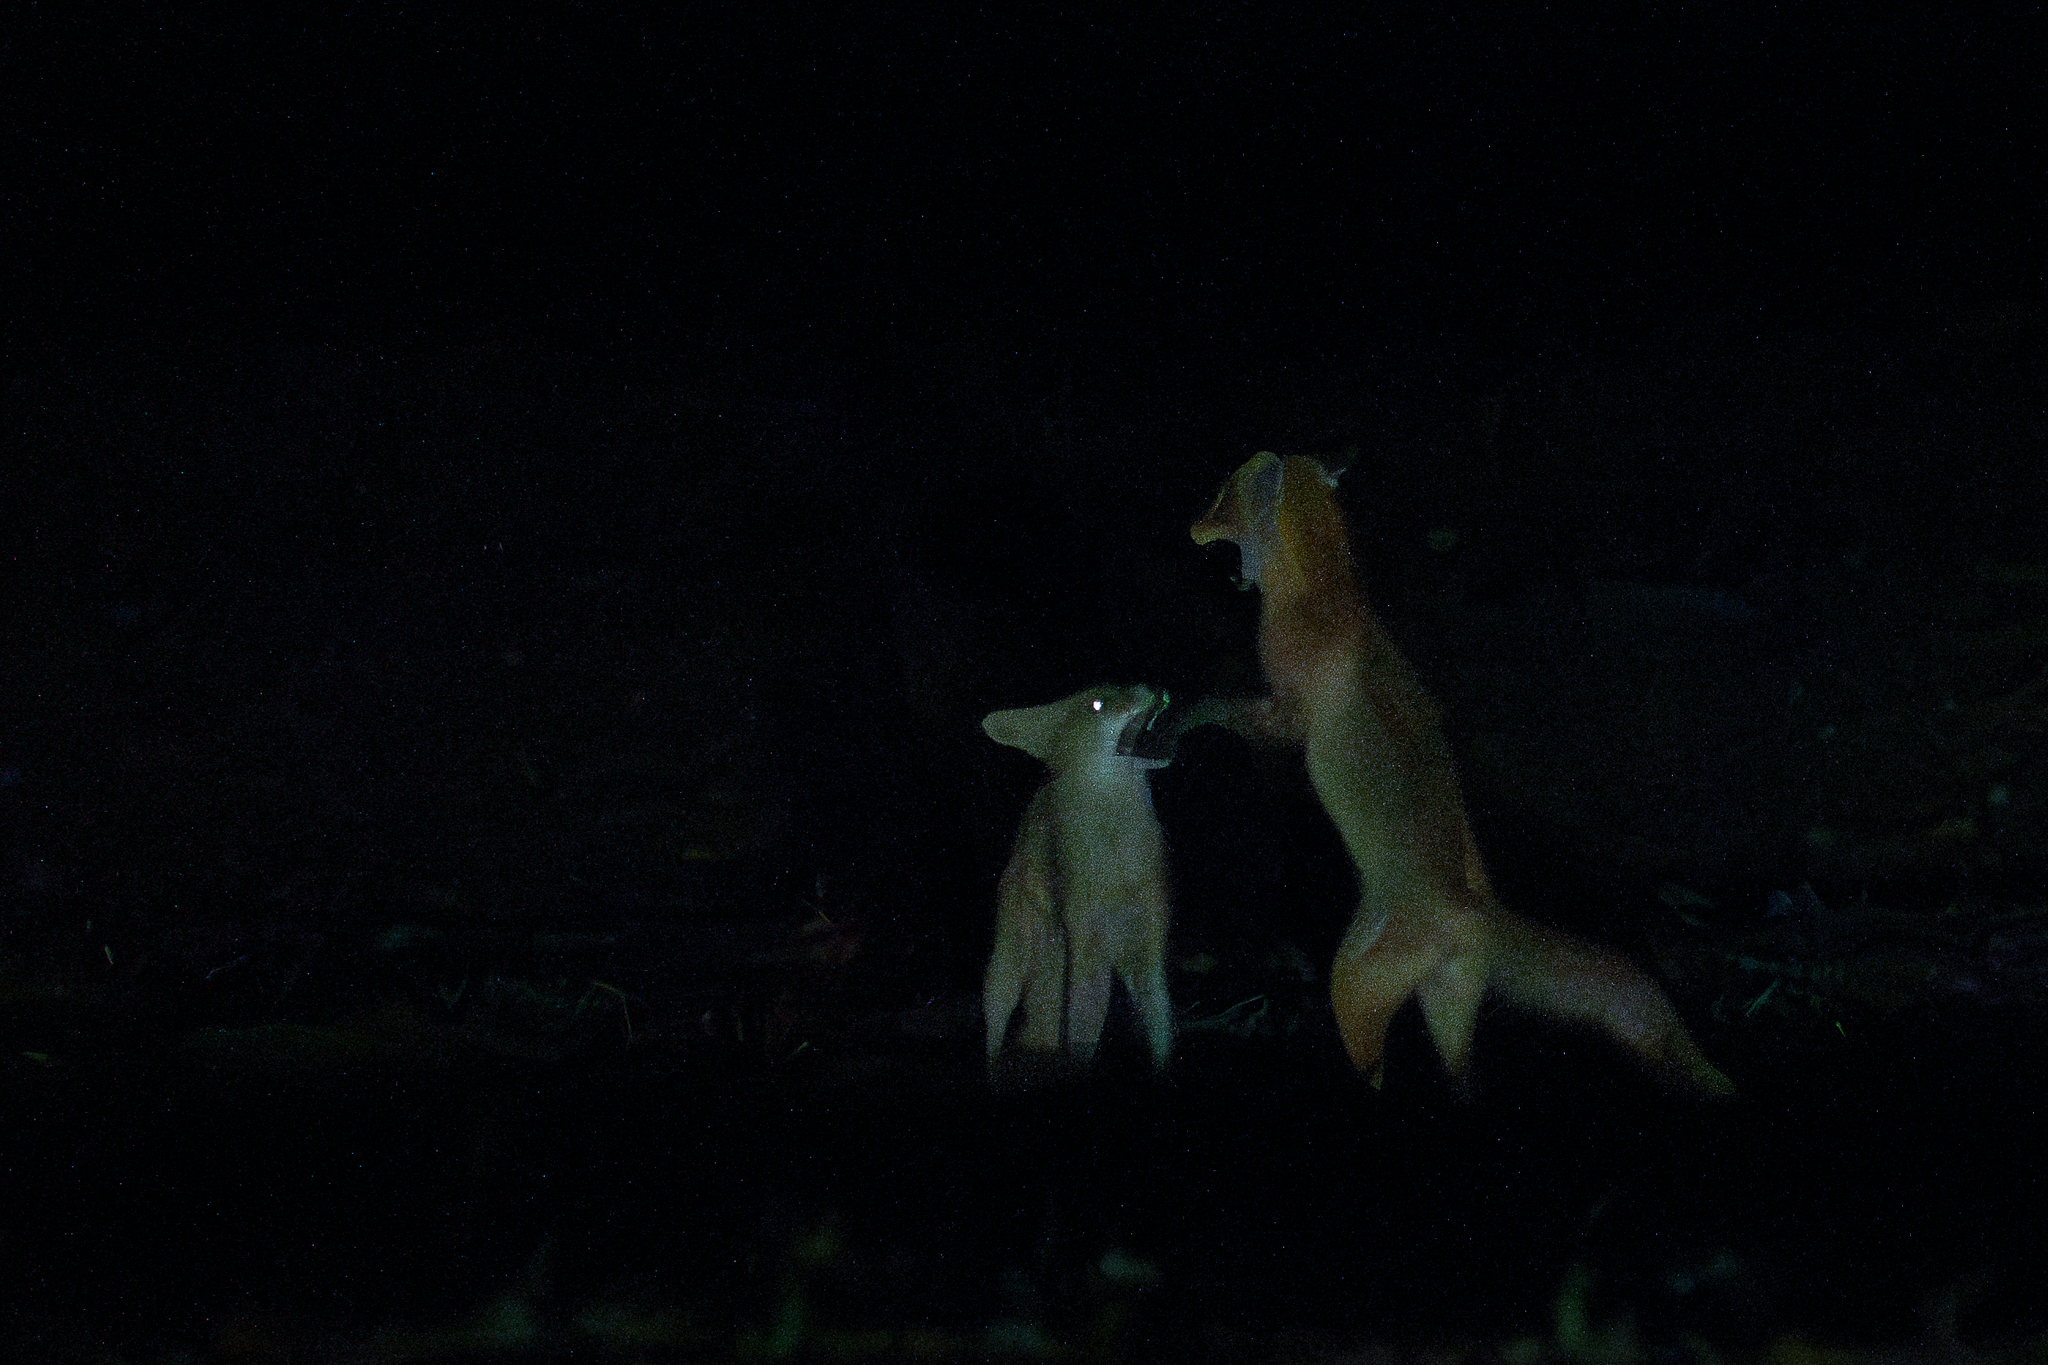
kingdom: Animalia
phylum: Chordata
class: Mammalia
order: Carnivora
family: Canidae
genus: Vulpes
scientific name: Vulpes vulpes
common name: Red fox
